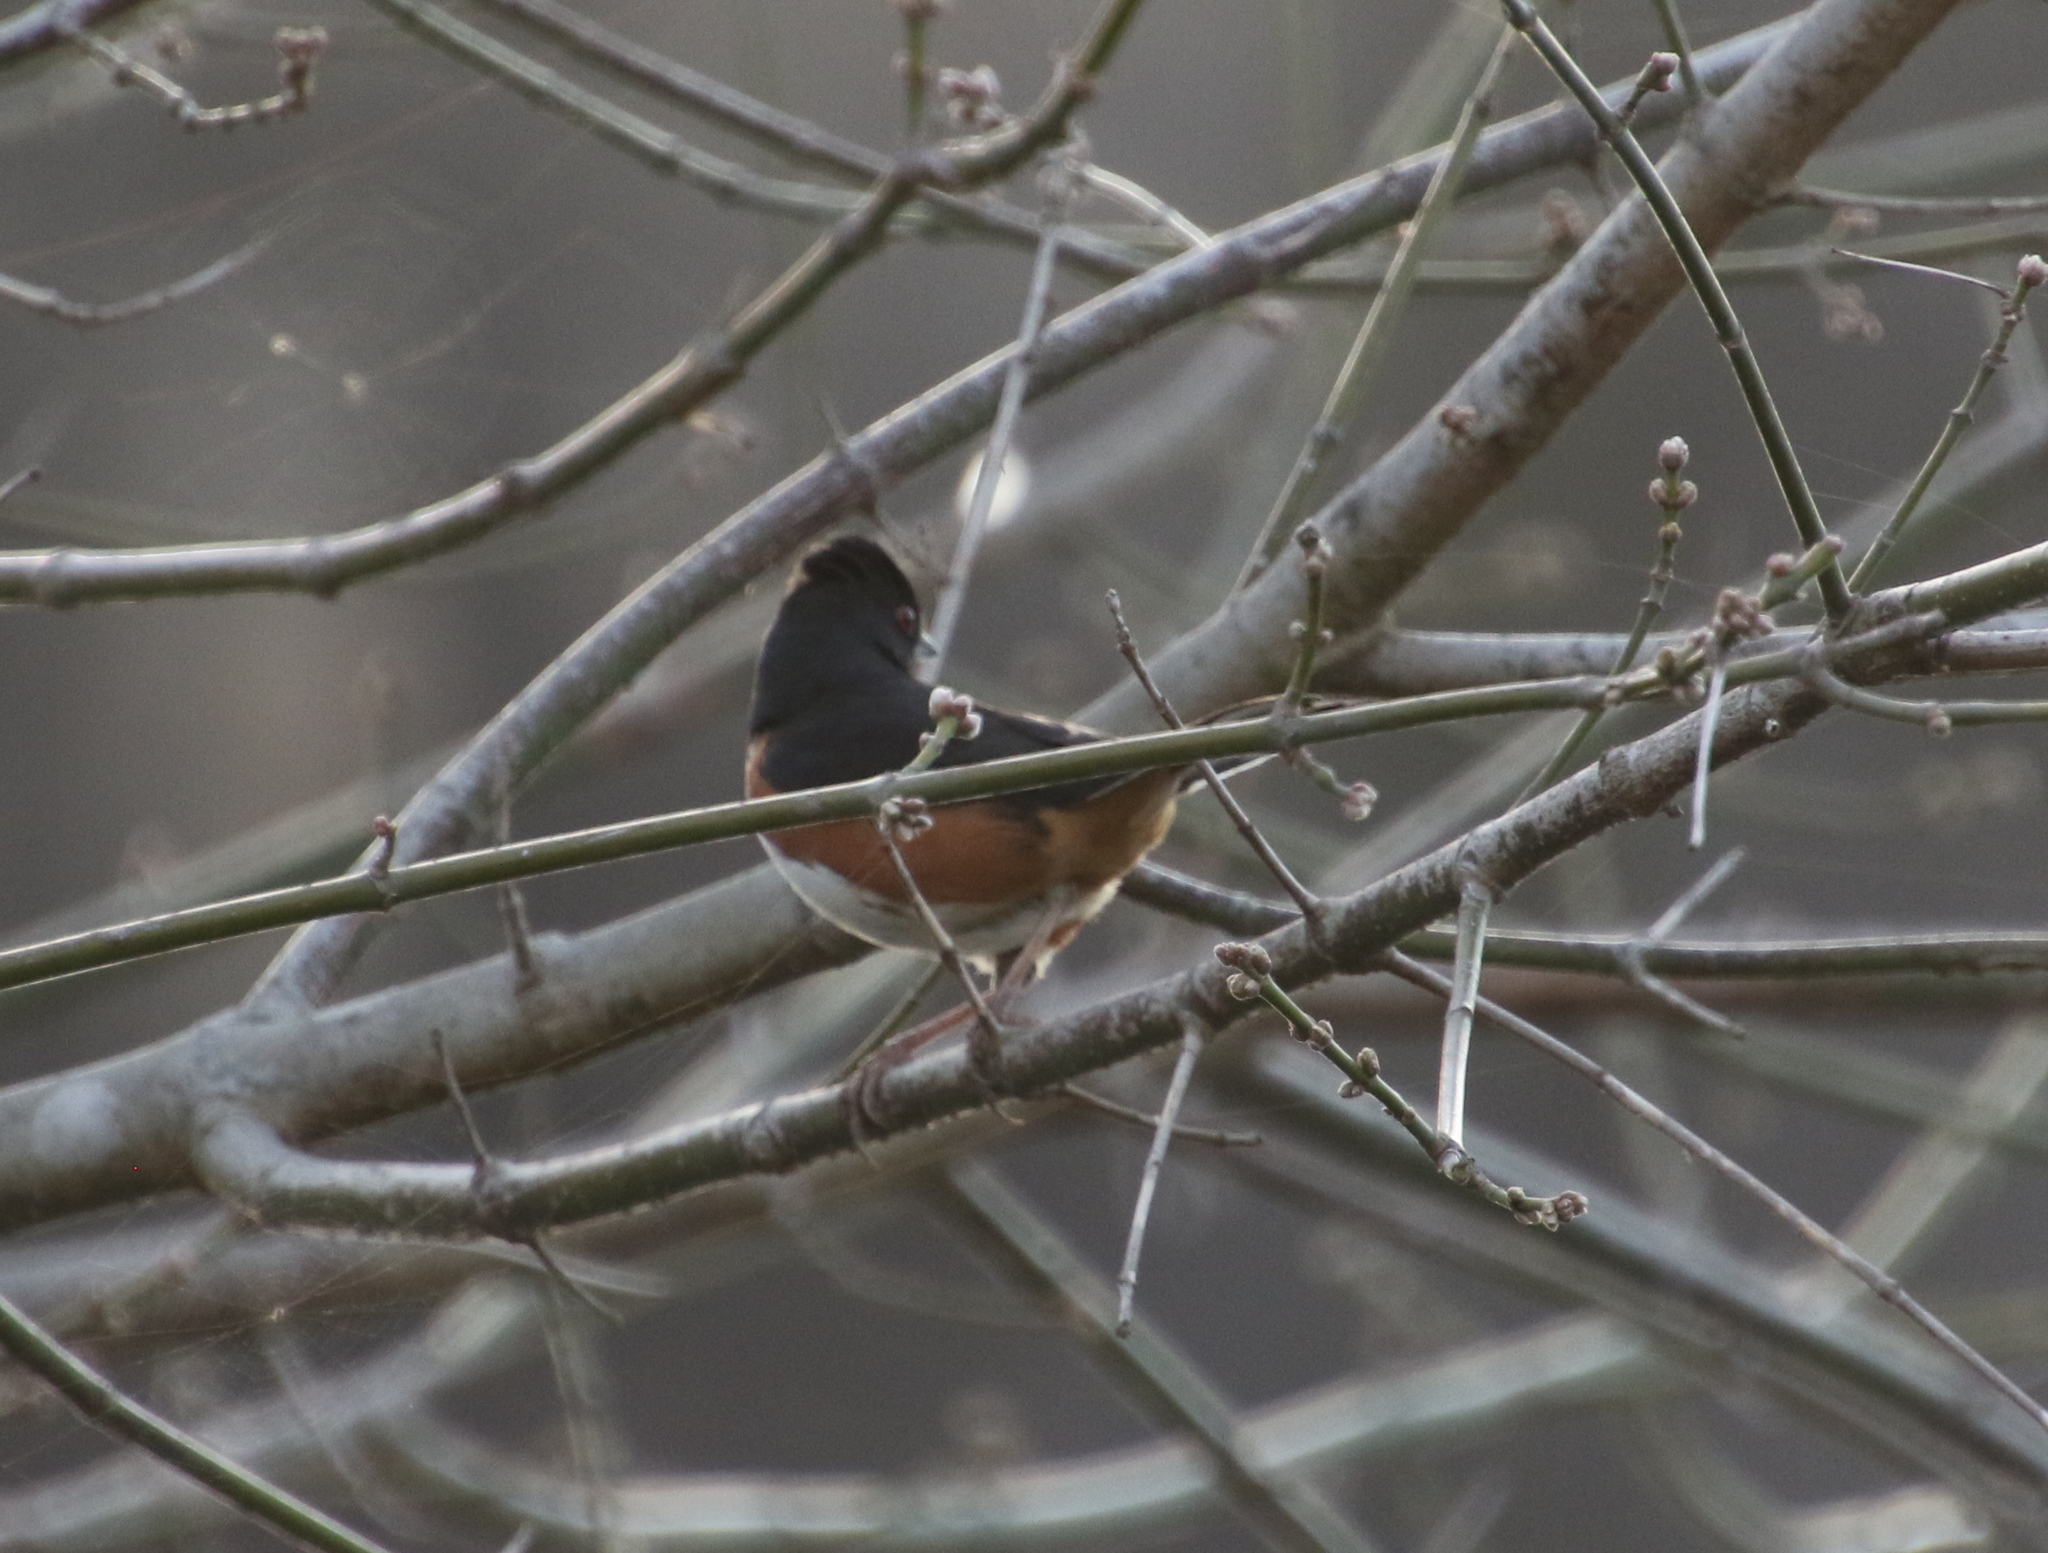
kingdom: Animalia
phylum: Chordata
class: Aves
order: Passeriformes
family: Passerellidae
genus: Pipilo
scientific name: Pipilo erythrophthalmus
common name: Eastern towhee
